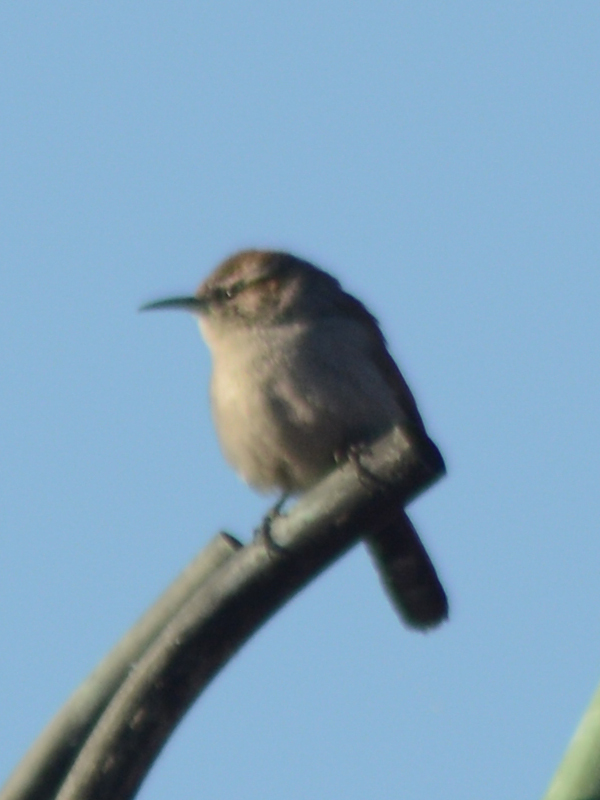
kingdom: Animalia
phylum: Chordata
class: Aves
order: Passeriformes
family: Troglodytidae
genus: Thryomanes
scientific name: Thryomanes bewickii
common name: Bewick's wren
